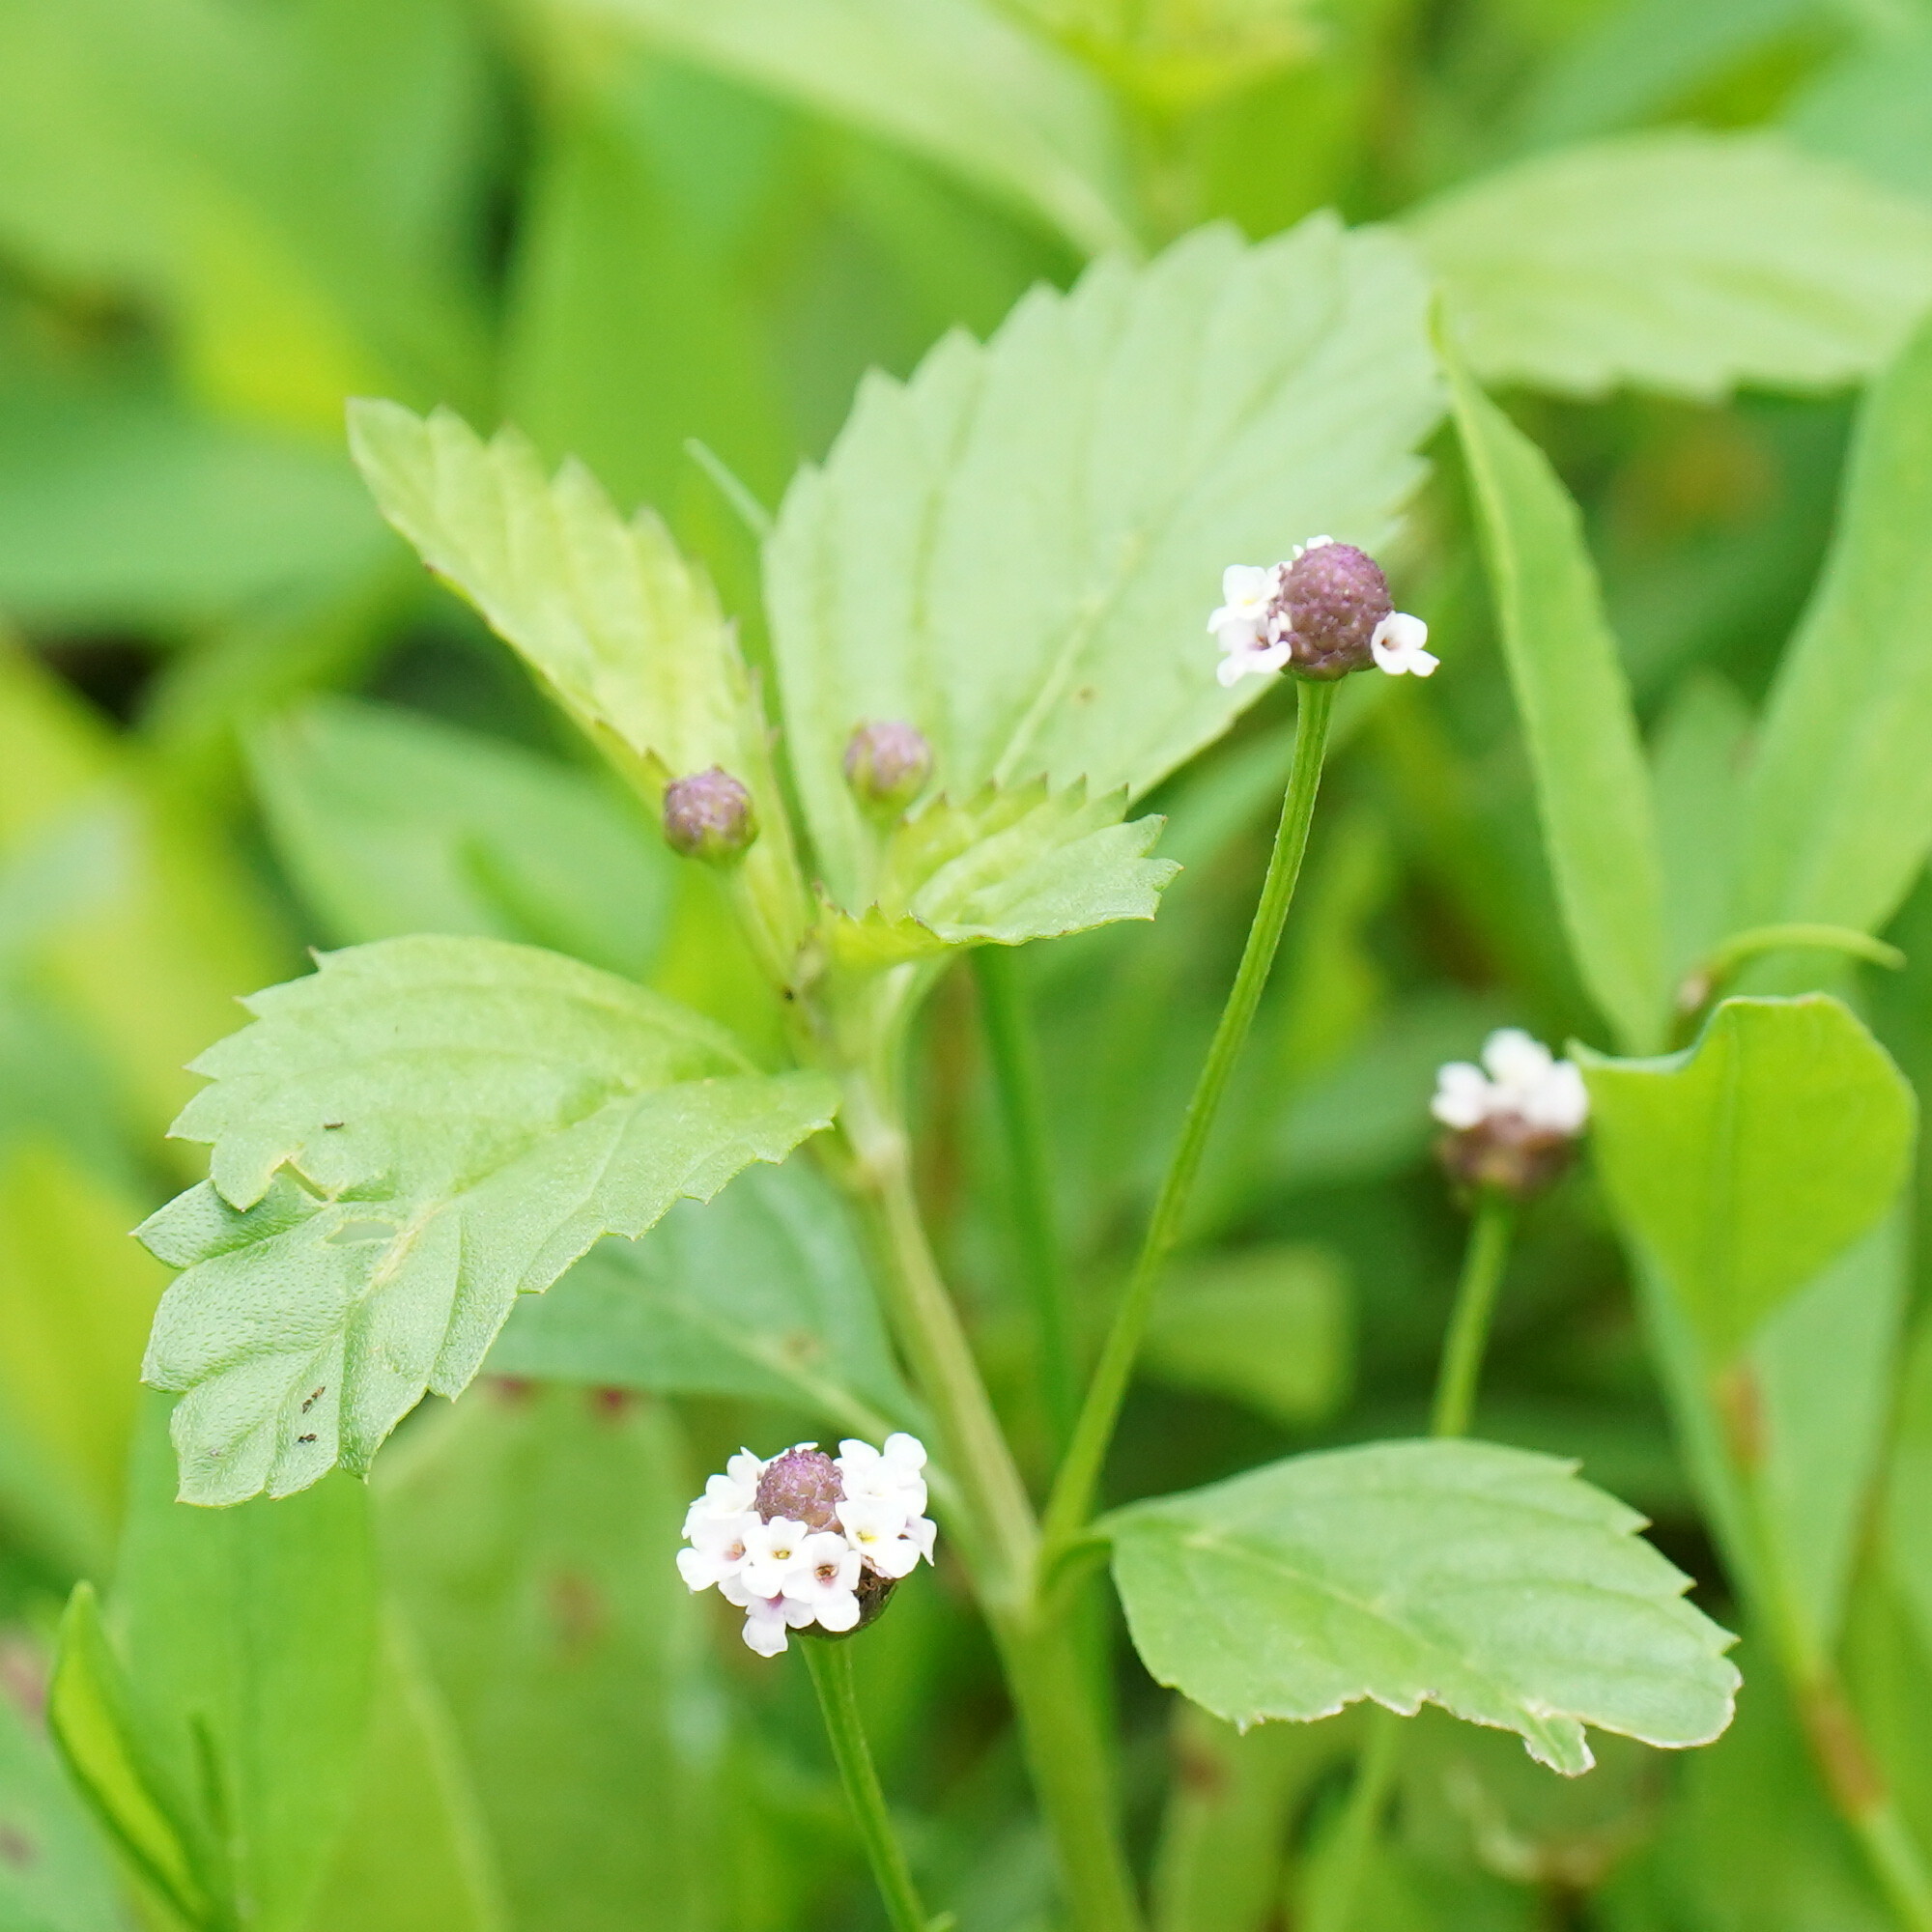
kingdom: Plantae
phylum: Tracheophyta
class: Magnoliopsida
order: Lamiales
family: Verbenaceae
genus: Phyla
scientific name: Phyla lanceolata
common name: Northern fogfruit
